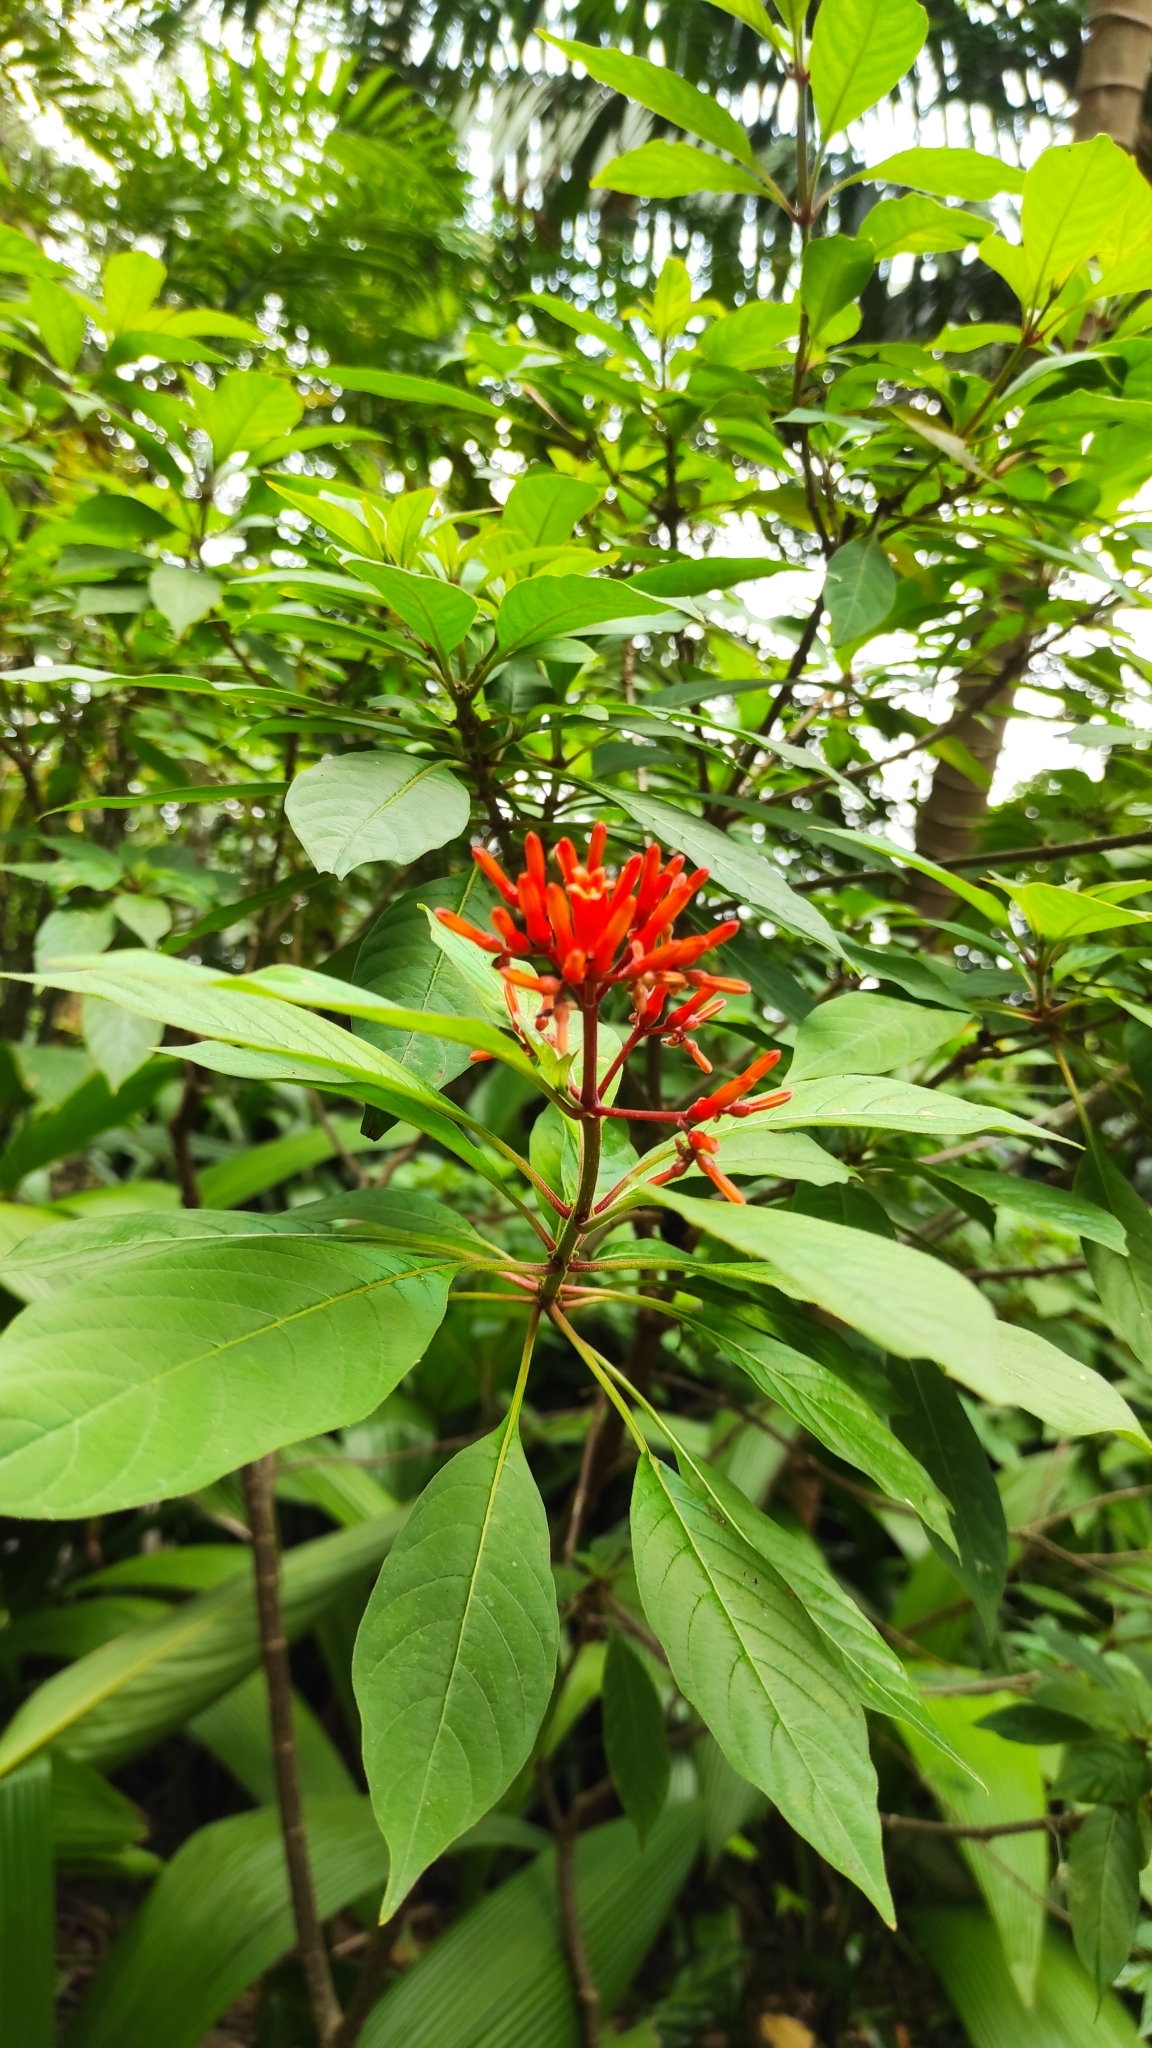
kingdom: Plantae
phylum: Tracheophyta
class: Magnoliopsida
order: Gentianales
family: Rubiaceae
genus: Hamelia
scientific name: Hamelia patens
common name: Redhead
